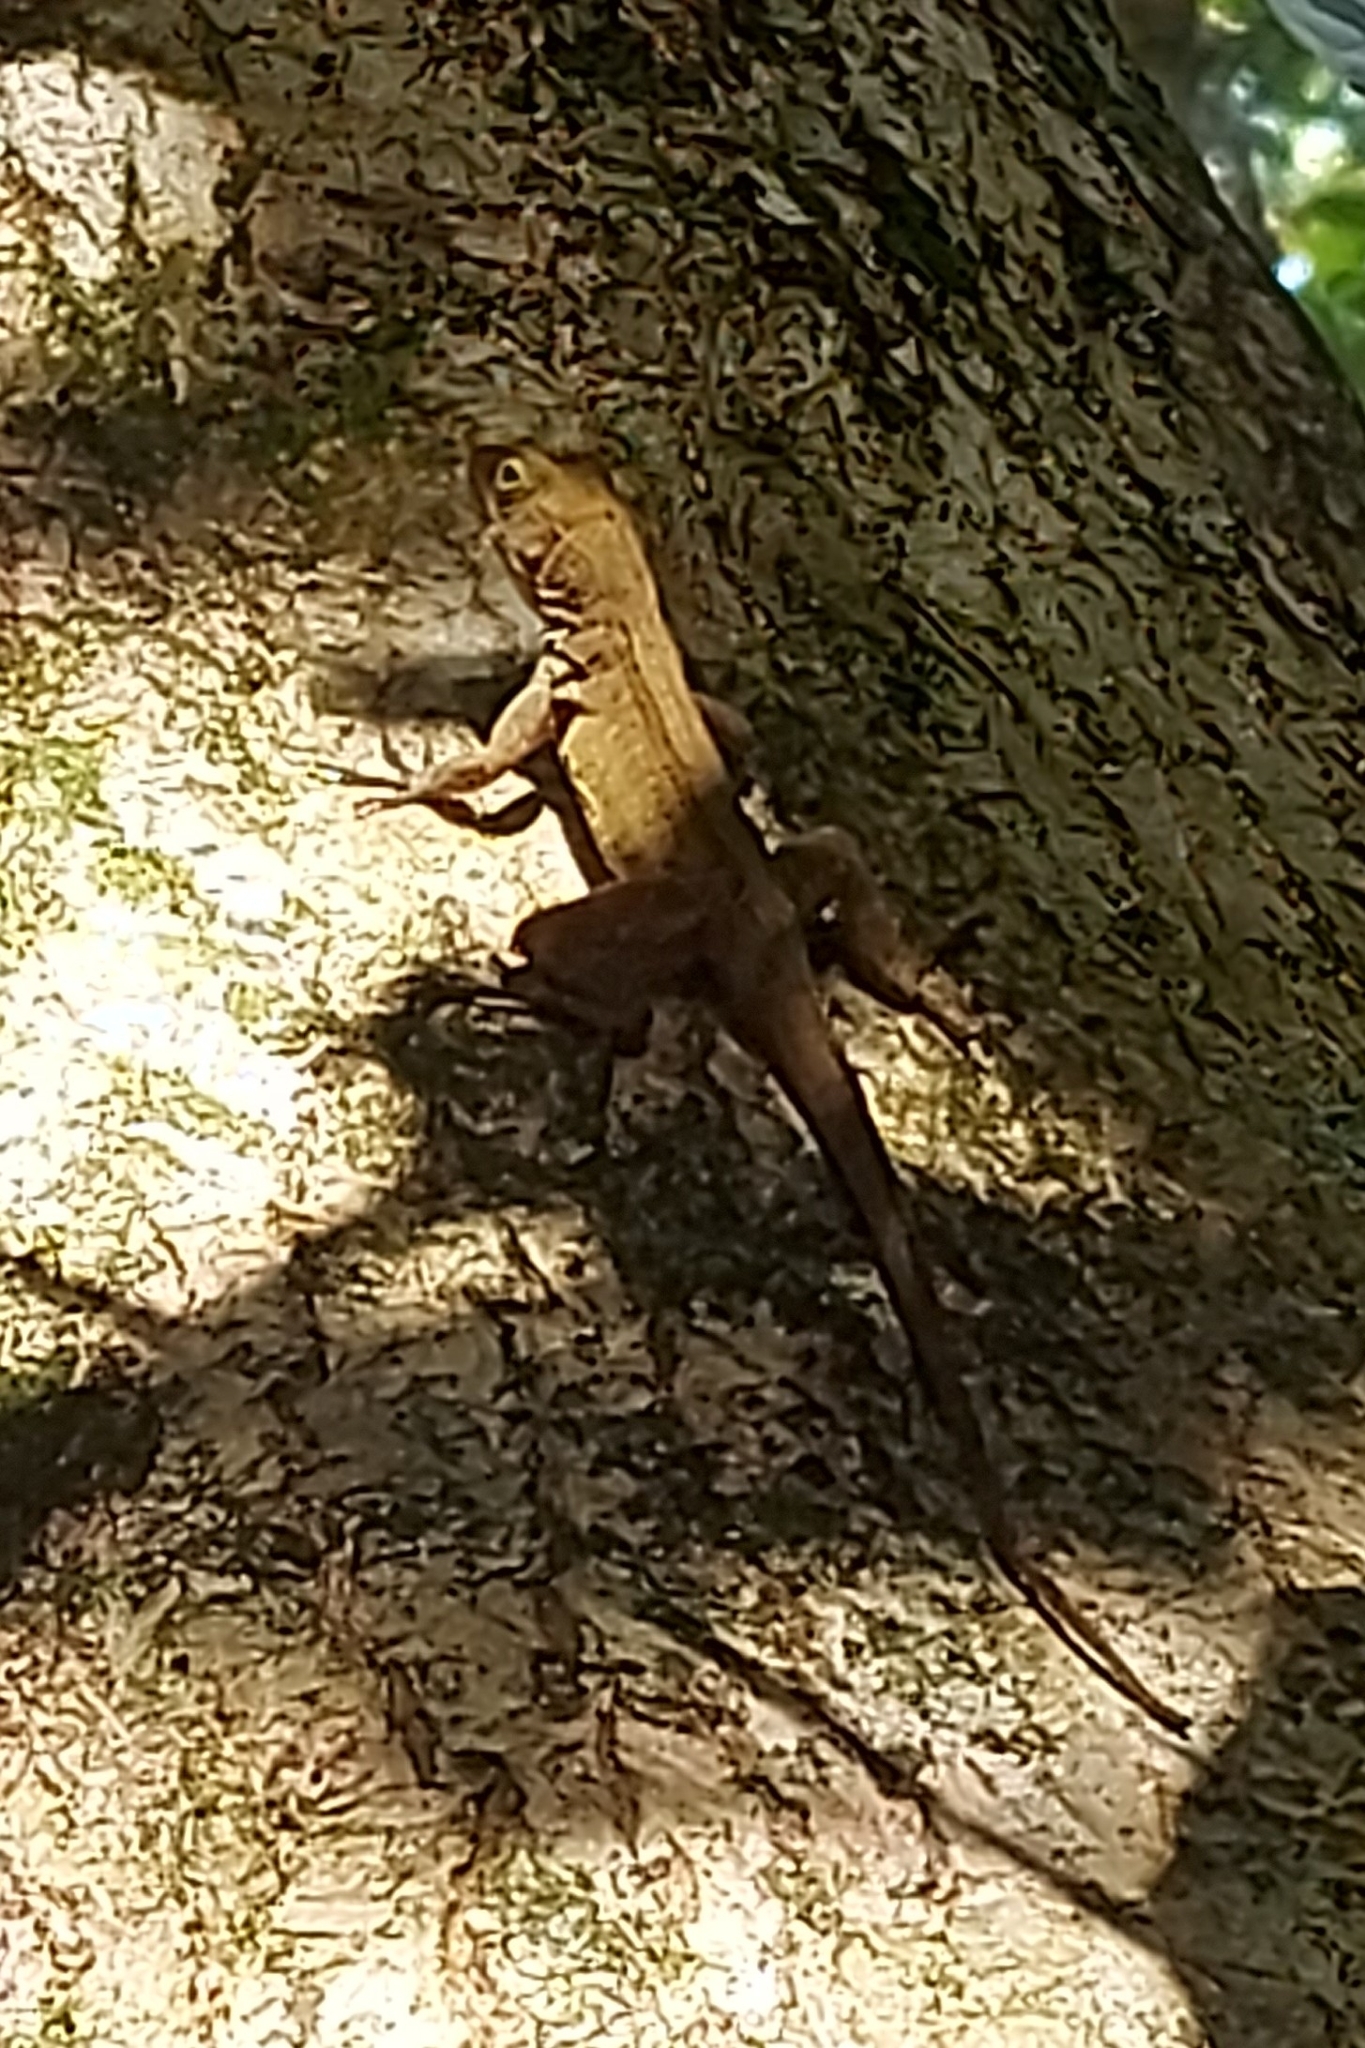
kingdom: Animalia
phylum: Chordata
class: Squamata
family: Dactyloidae
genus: Anolis
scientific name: Anolis cristatellus
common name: Crested anole
